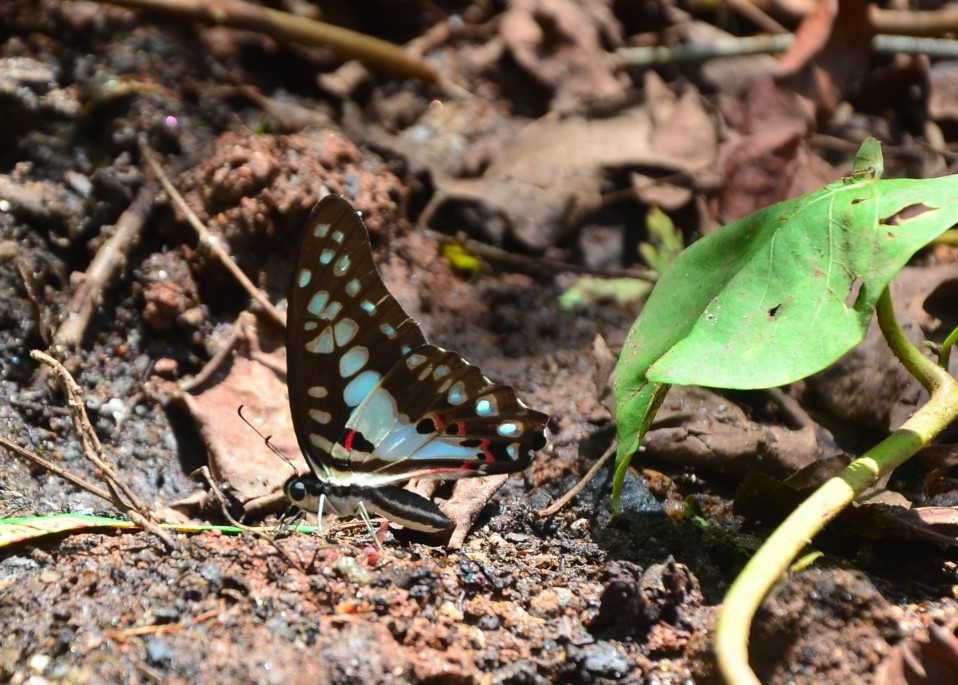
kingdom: Animalia
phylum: Arthropoda
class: Insecta
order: Lepidoptera
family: Papilionidae
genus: Graphium
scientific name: Graphium doson
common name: Common jay
